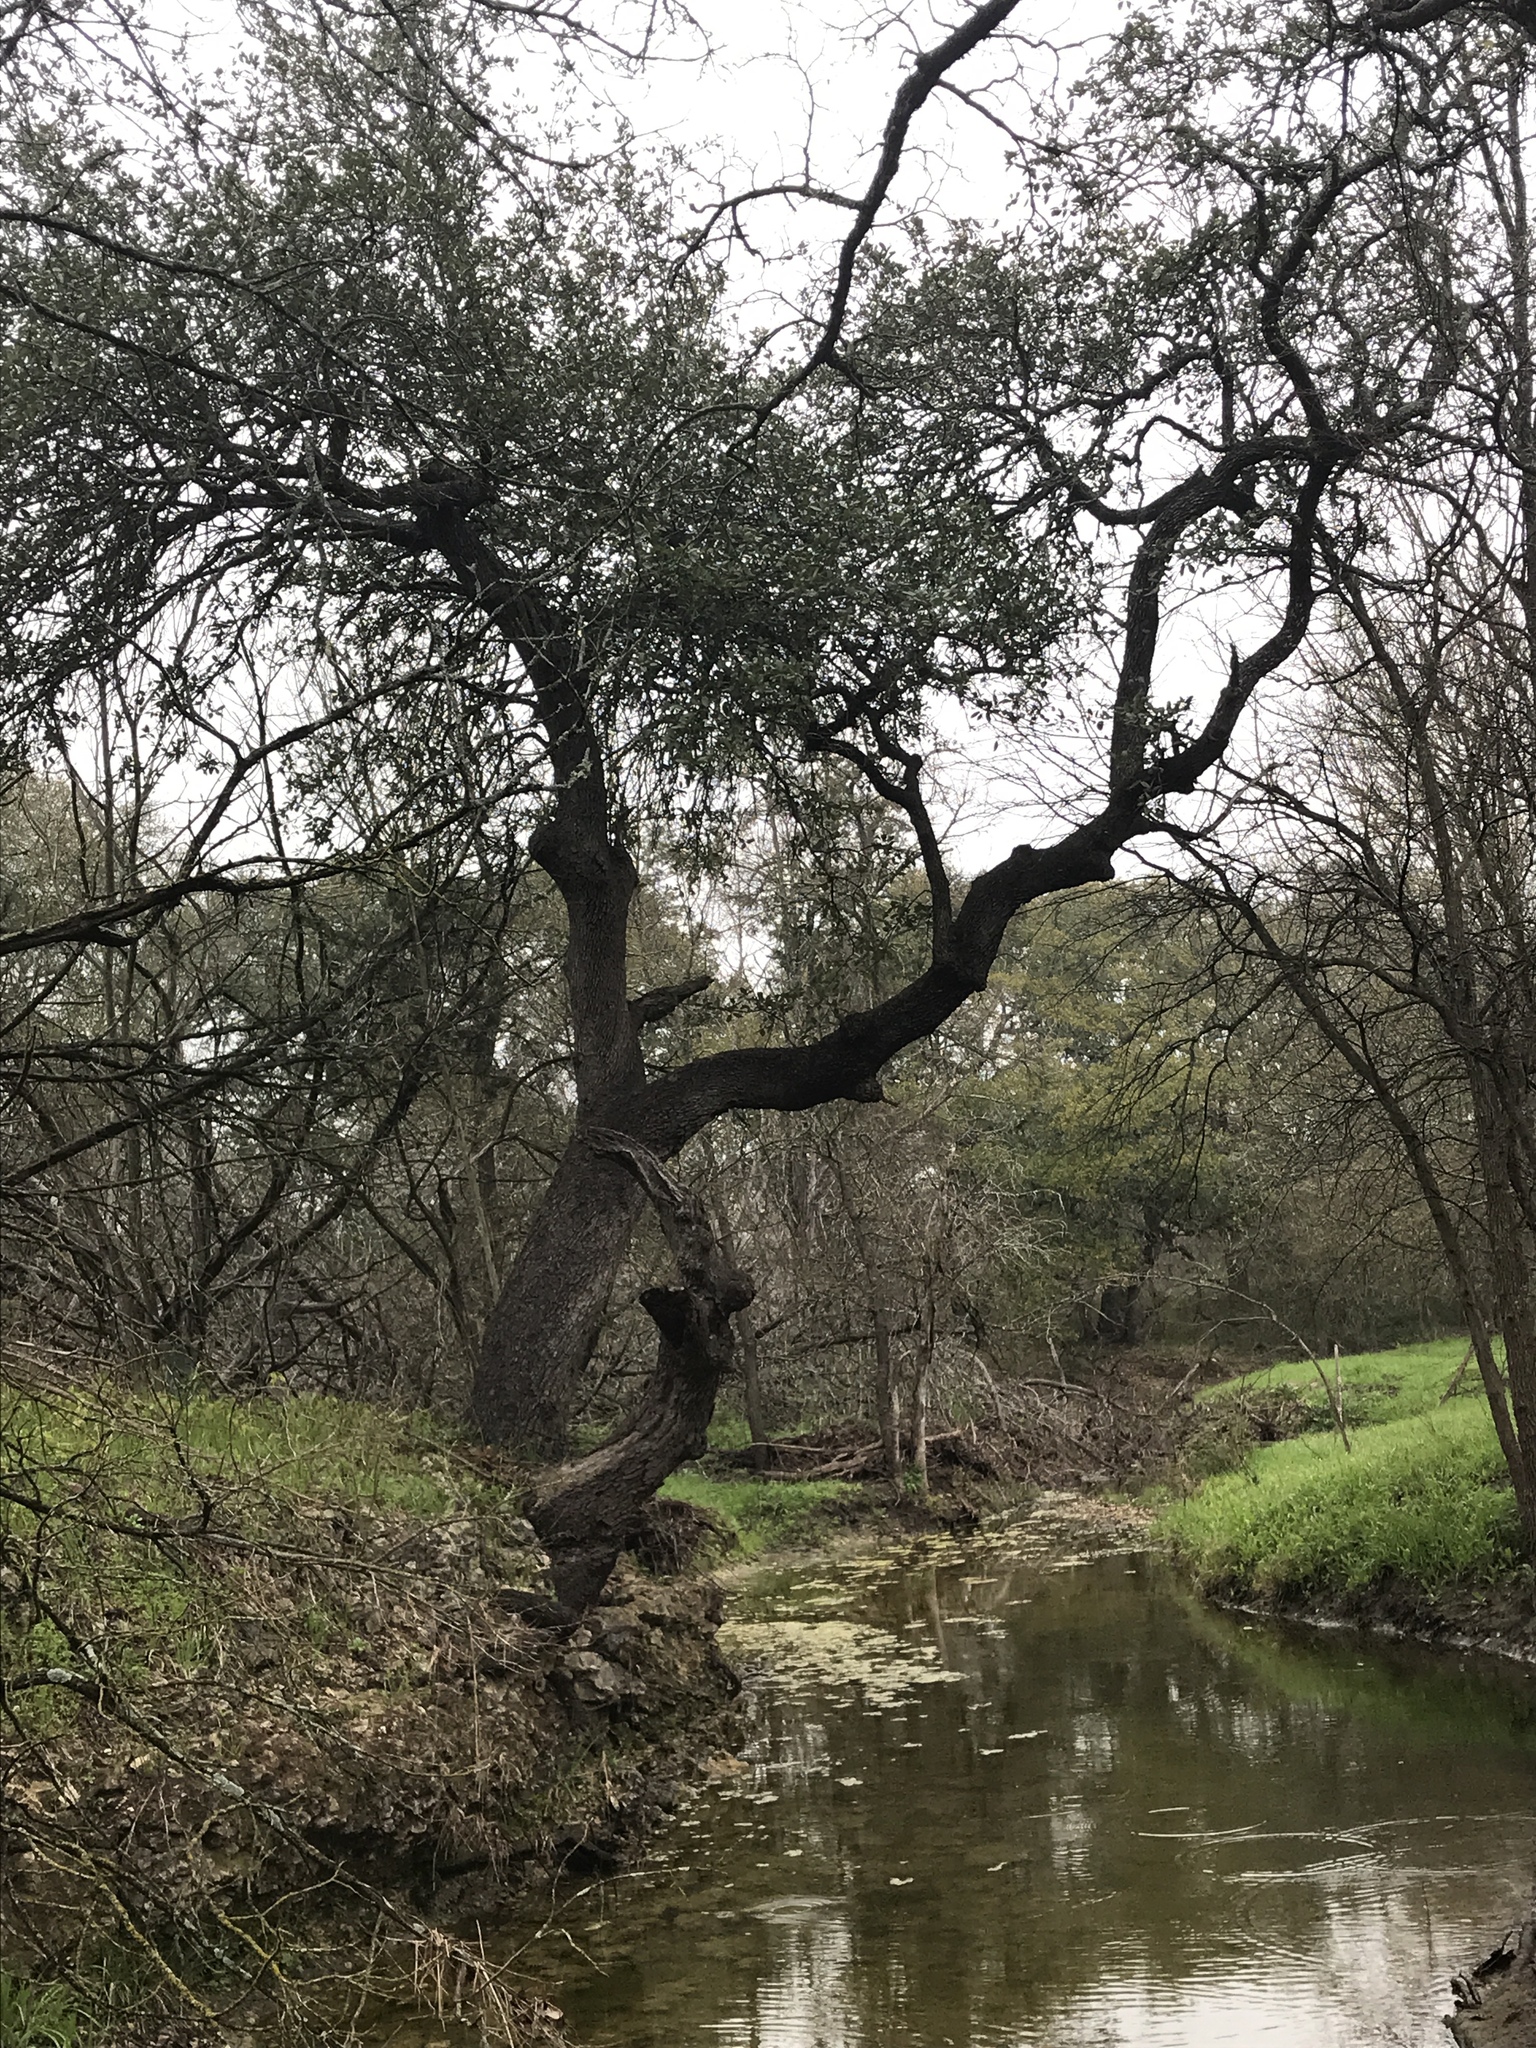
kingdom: Plantae
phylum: Tracheophyta
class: Magnoliopsida
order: Fagales
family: Fagaceae
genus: Quercus
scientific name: Quercus fusiformis
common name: Texas live oak
